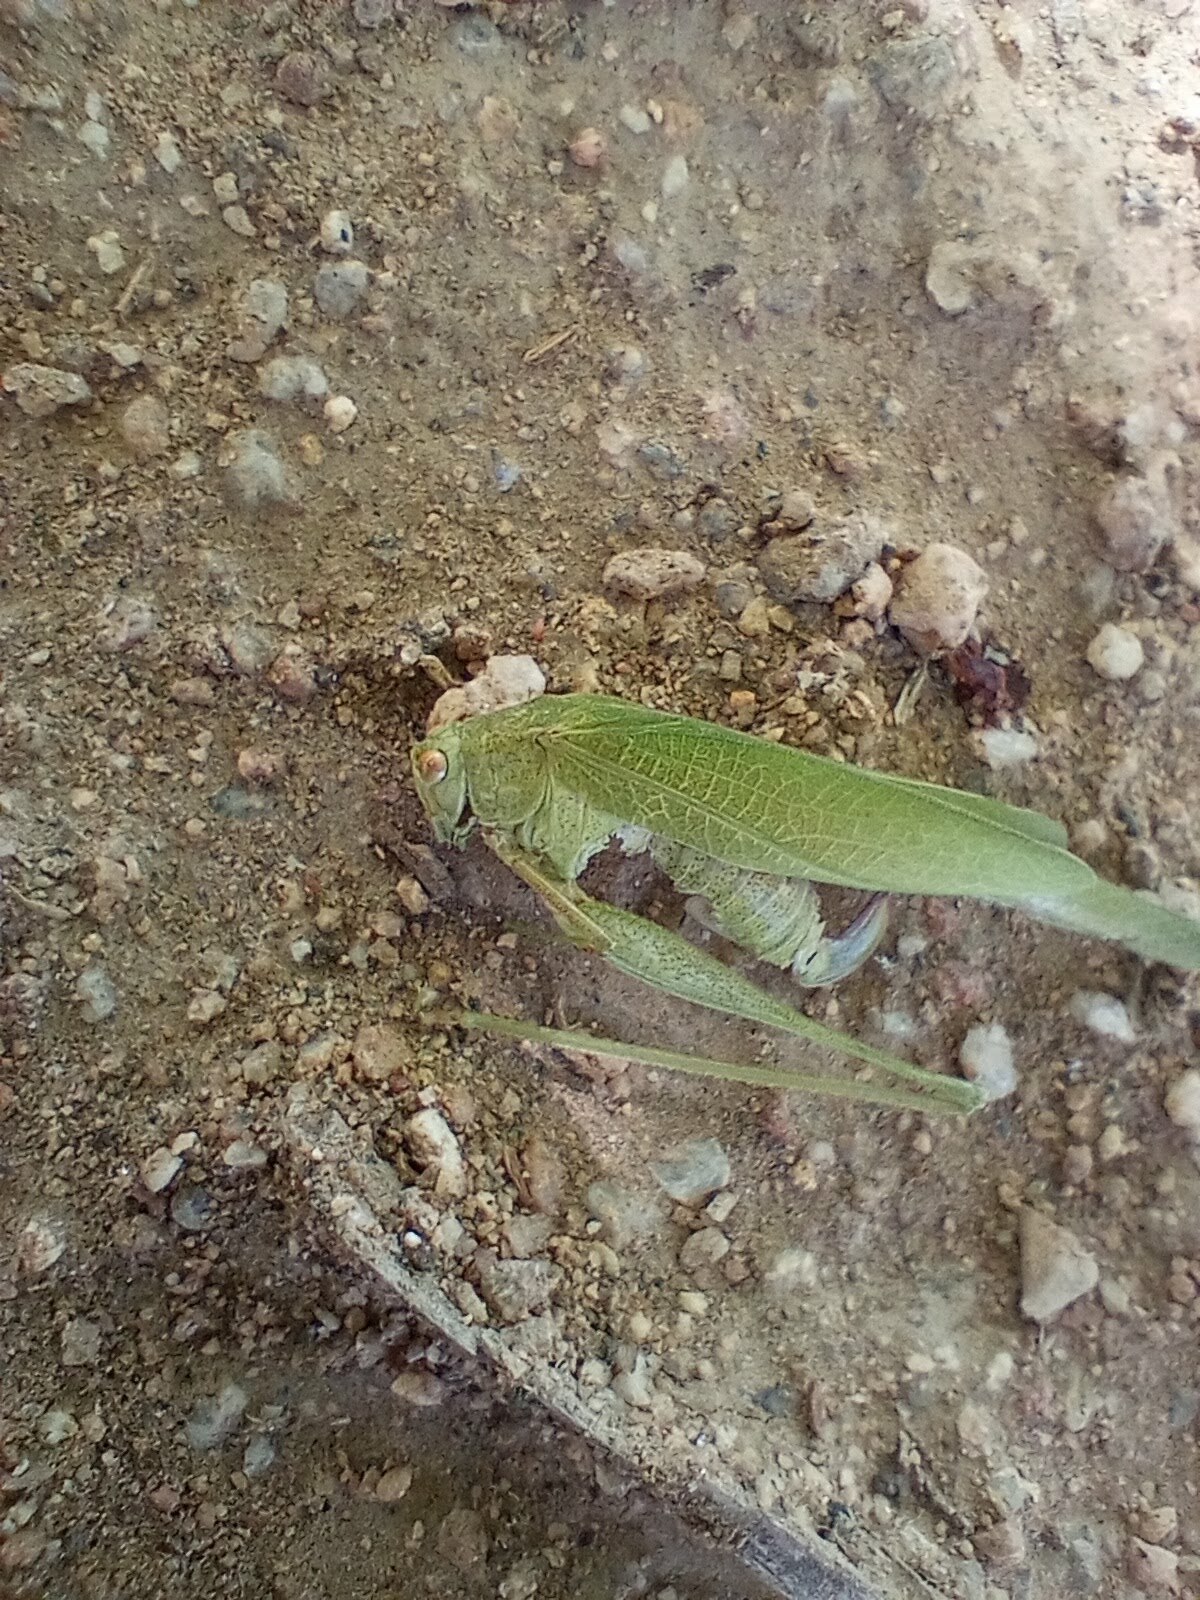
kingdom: Animalia
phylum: Arthropoda
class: Insecta
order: Orthoptera
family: Tettigoniidae
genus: Phaneroptera
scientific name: Phaneroptera nana
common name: Southern sickle bush-cricket
